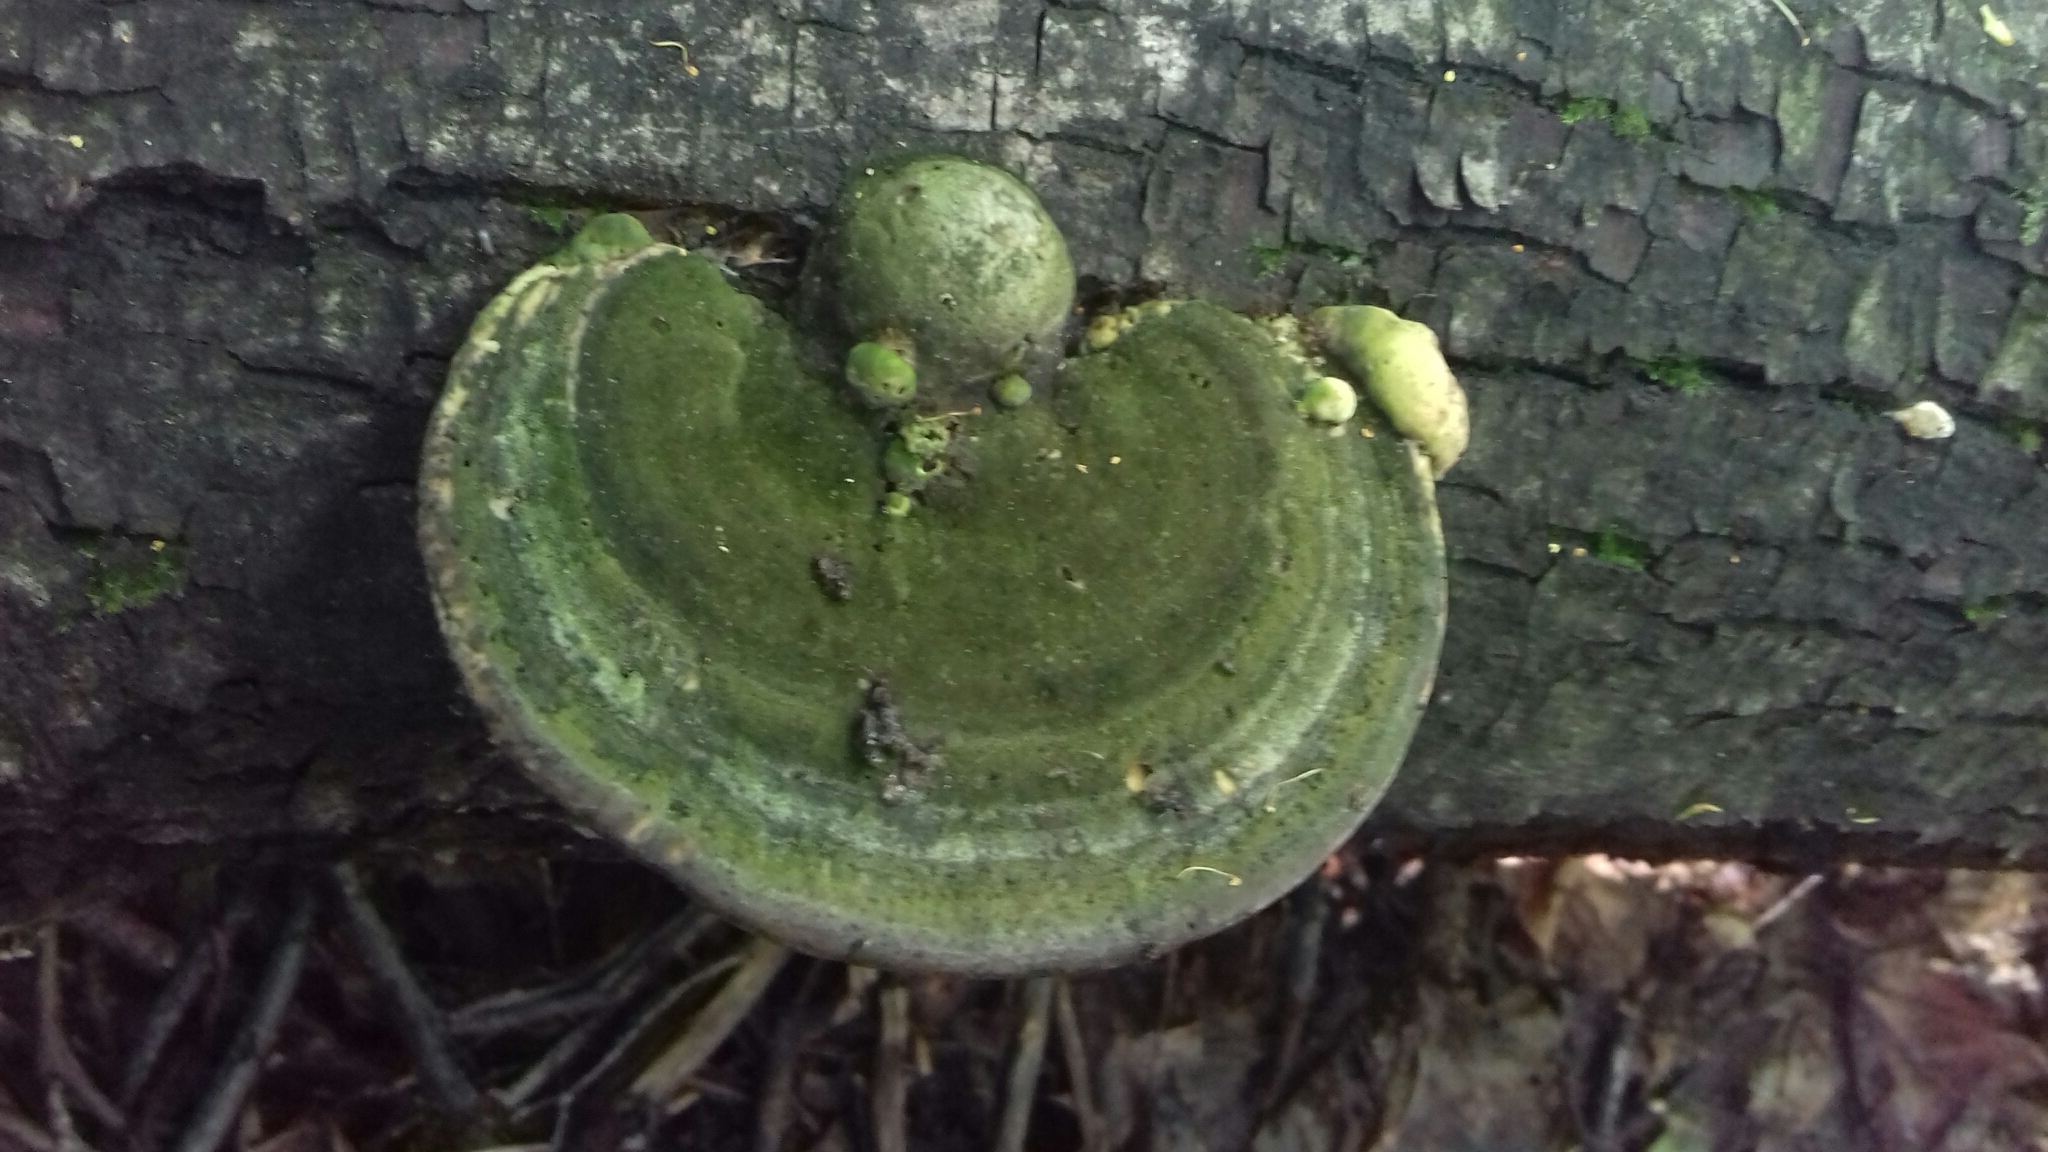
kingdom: Fungi
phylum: Basidiomycota
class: Agaricomycetes
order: Polyporales
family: Polyporaceae
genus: Trametes
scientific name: Trametes gibbosa
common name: Lumpy bracket
